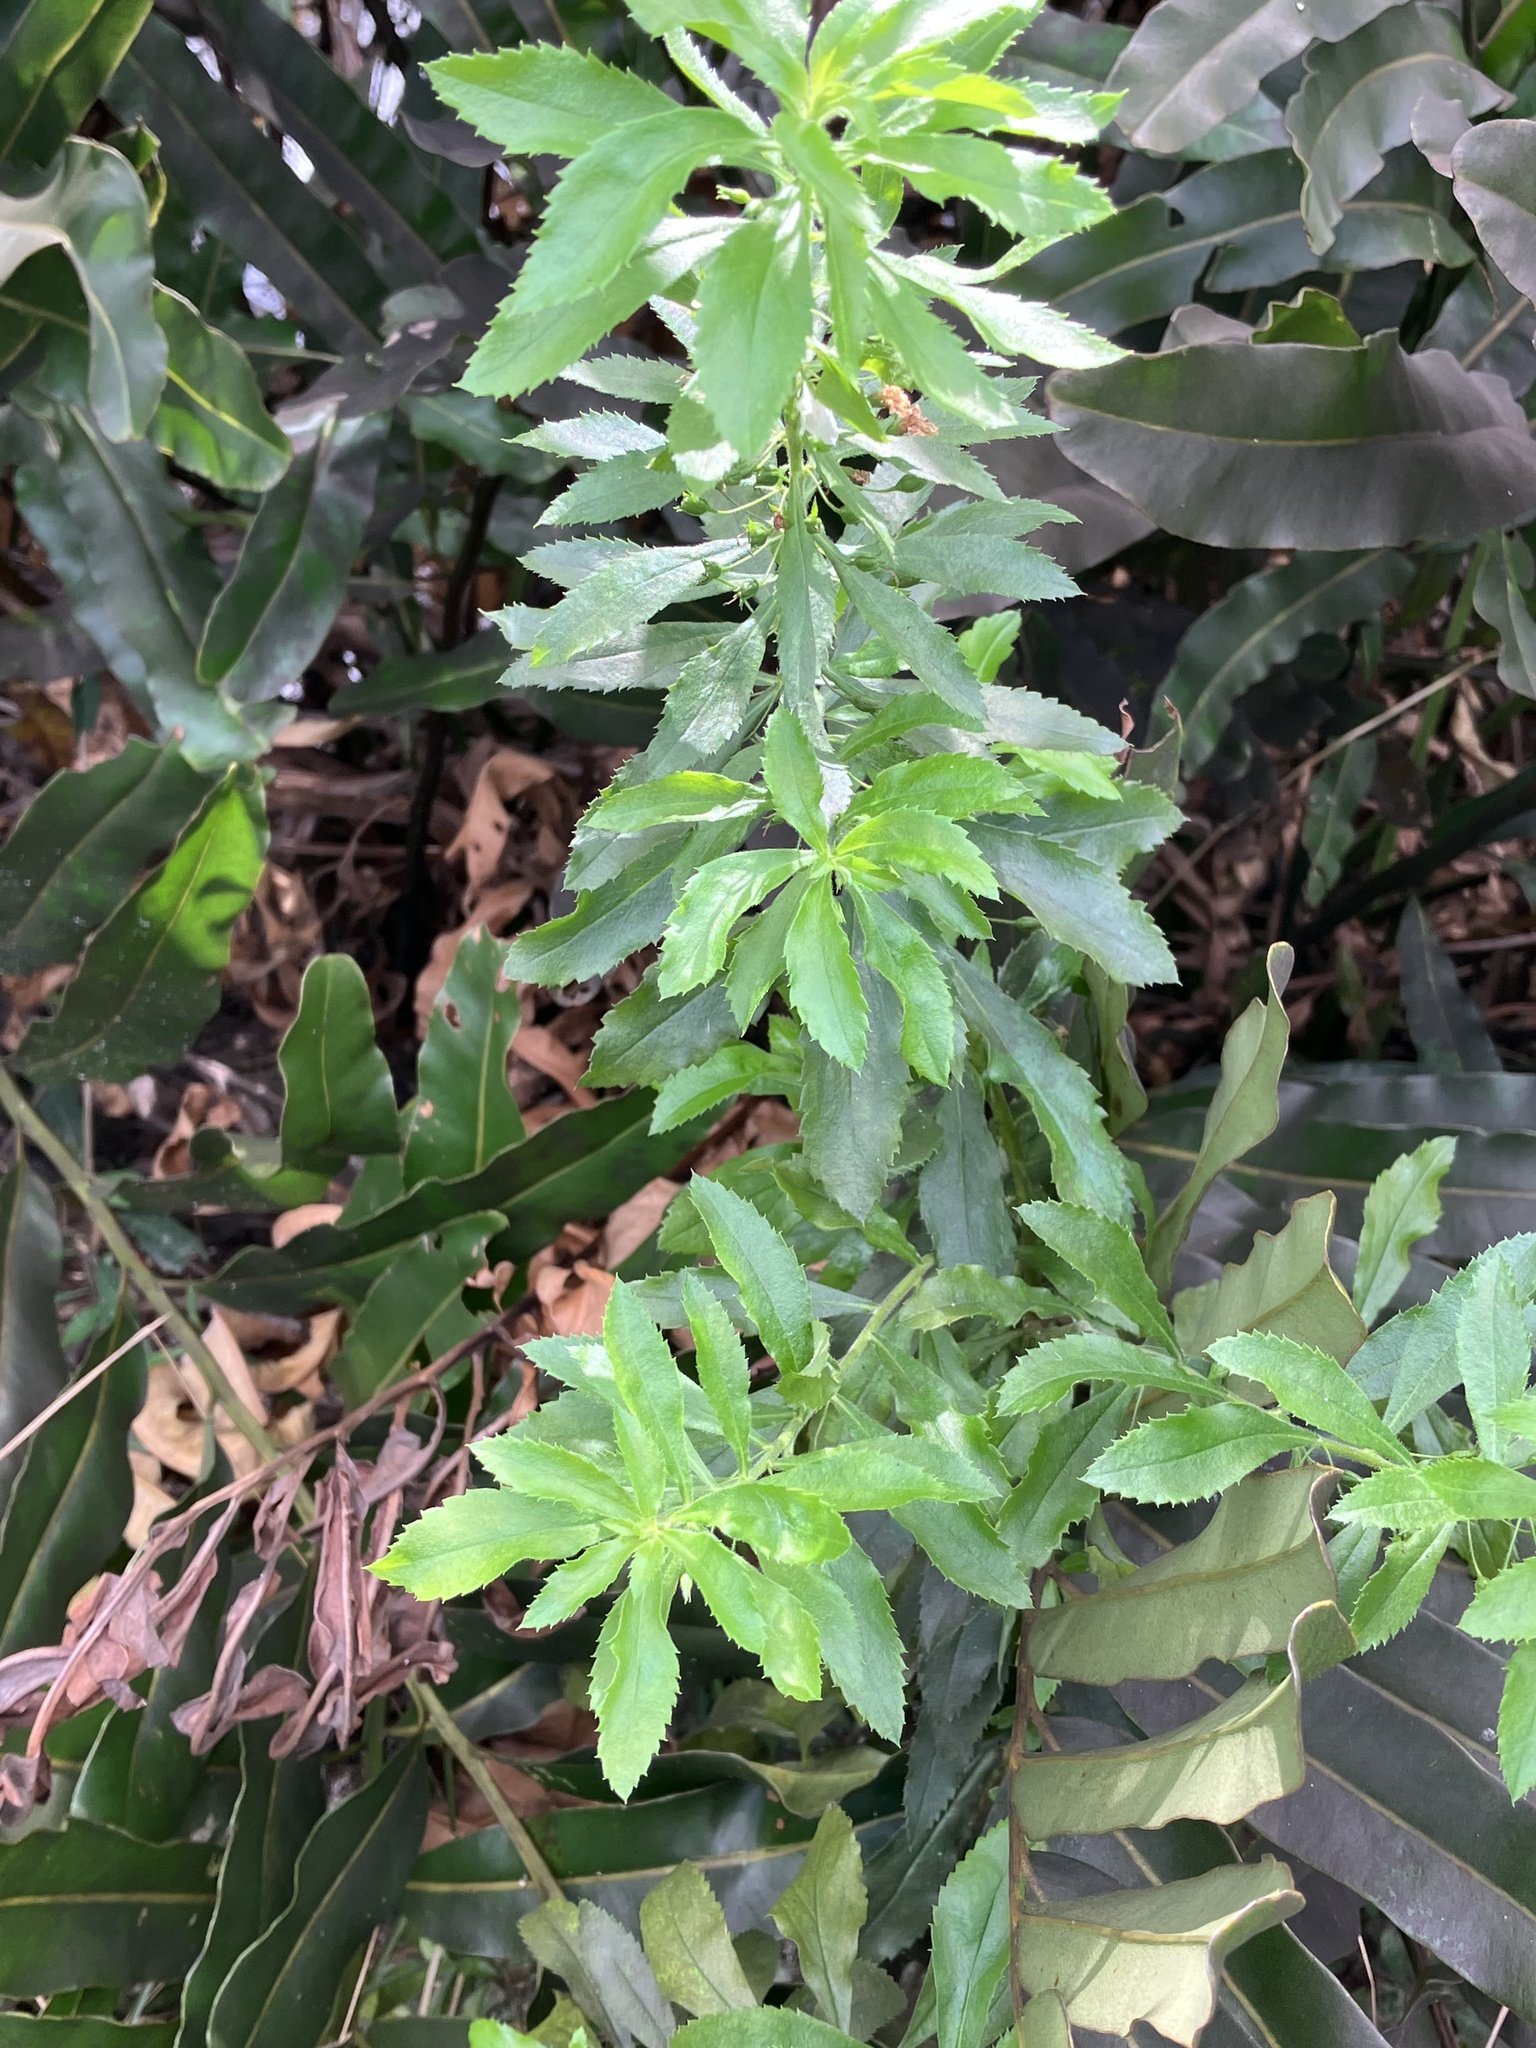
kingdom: Plantae
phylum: Tracheophyta
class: Magnoliopsida
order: Lamiales
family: Scrophulariaceae
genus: Capraria
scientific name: Capraria biflora
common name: Goatweed
